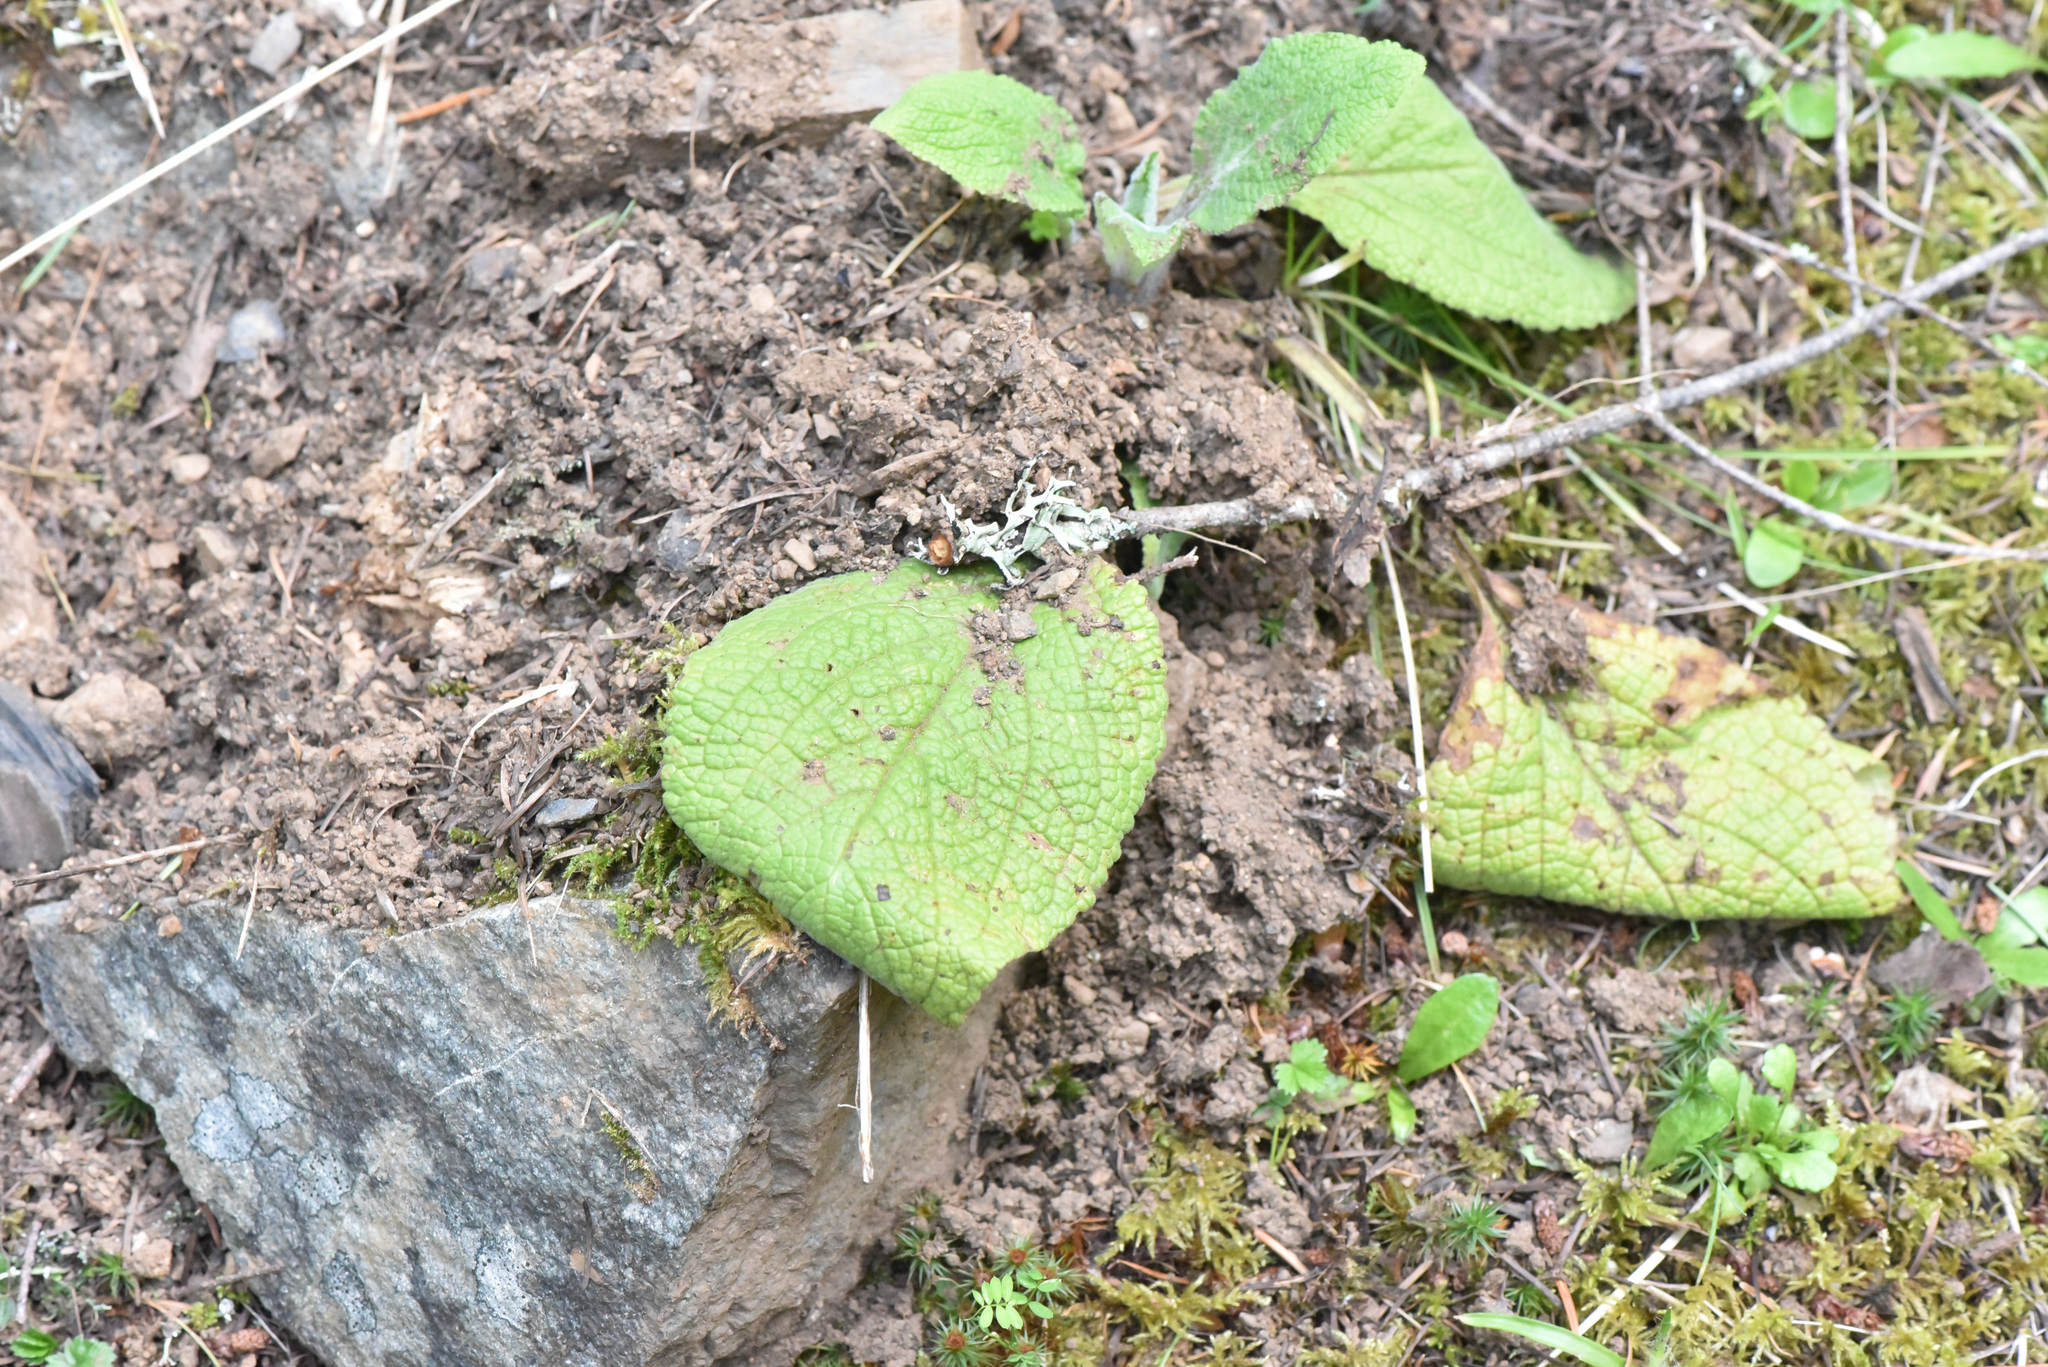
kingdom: Plantae
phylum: Tracheophyta
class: Magnoliopsida
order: Lamiales
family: Plantaginaceae
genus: Digitalis
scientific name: Digitalis purpurea
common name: Foxglove
